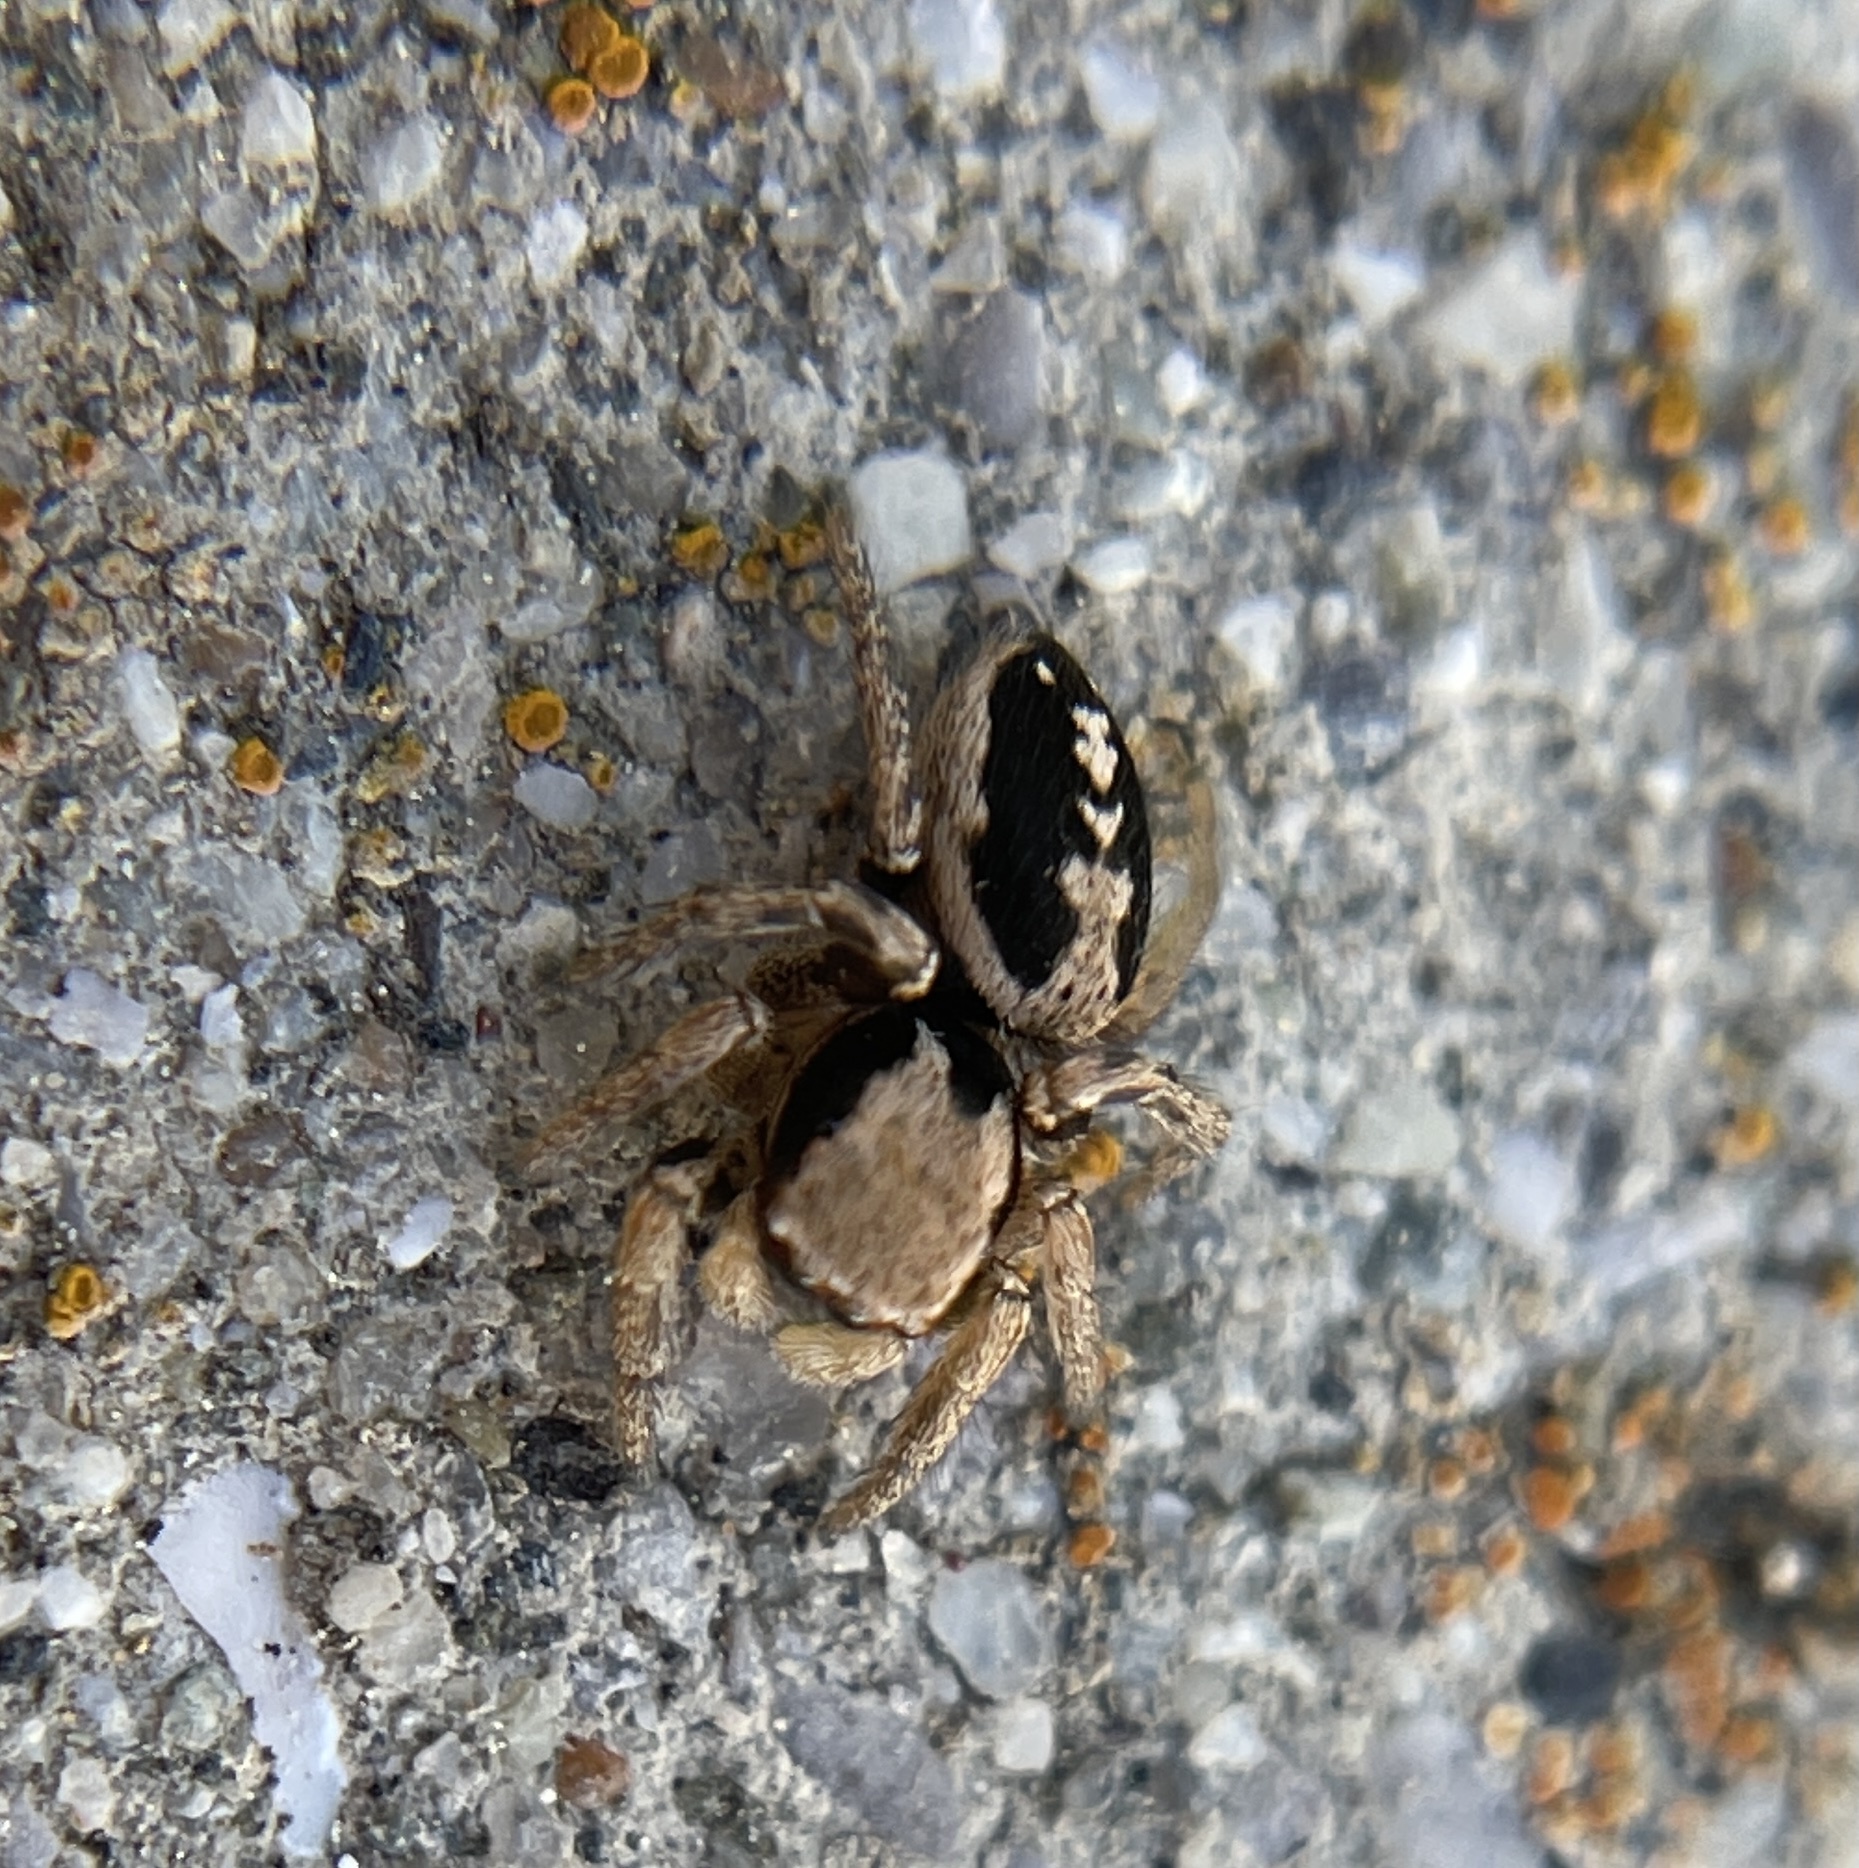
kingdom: Animalia
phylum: Arthropoda
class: Arachnida
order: Araneae
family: Salticidae
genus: Habronattus
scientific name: Habronattus pyrrithrix
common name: Jumping spider
